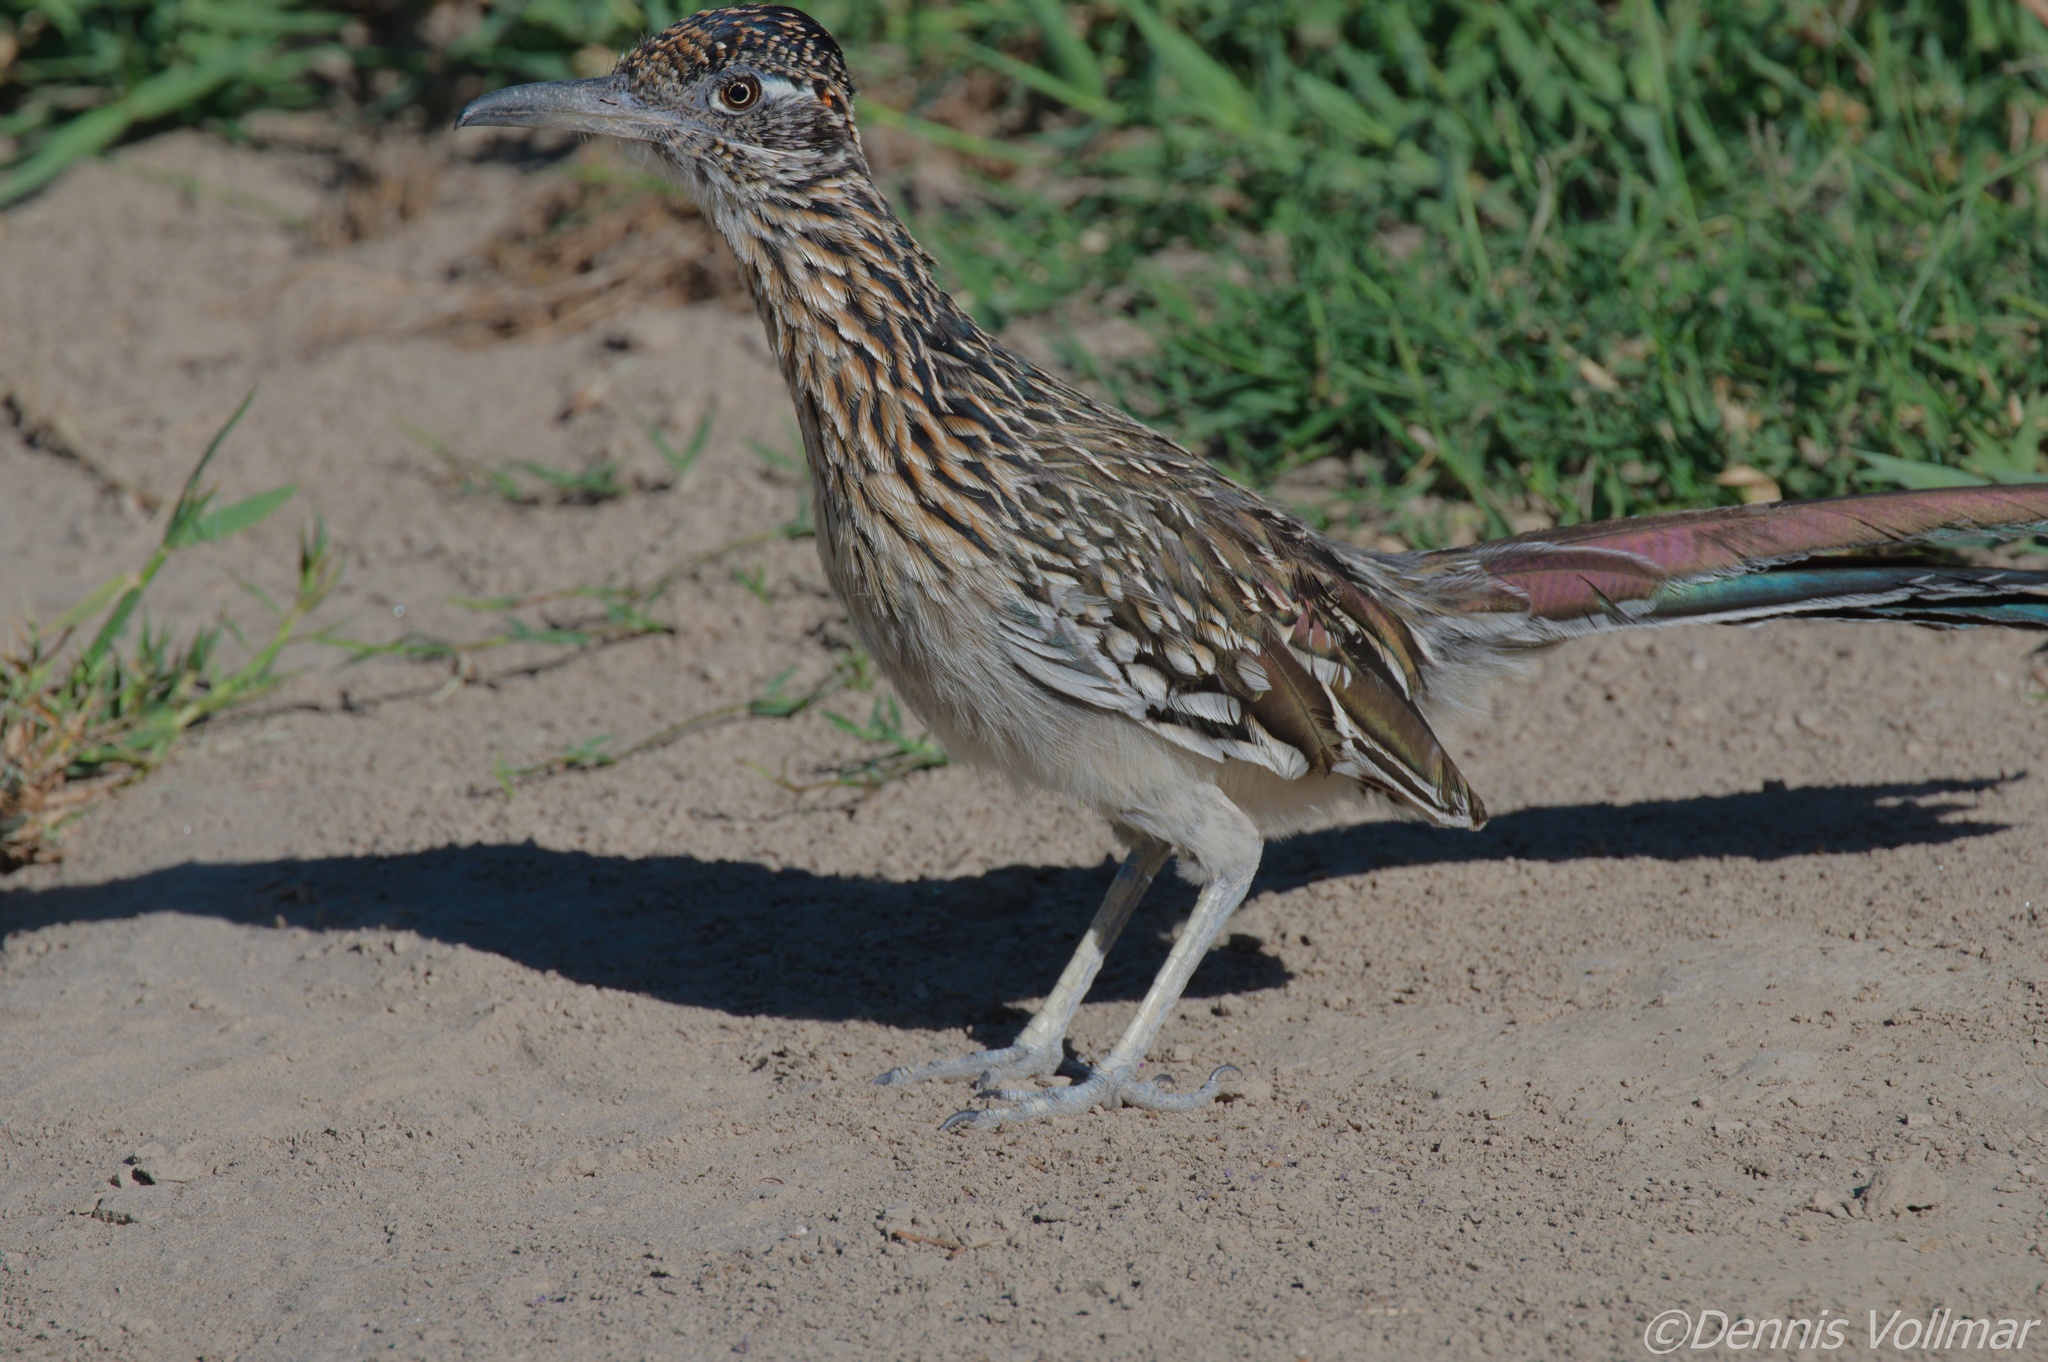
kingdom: Animalia
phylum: Chordata
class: Aves
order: Cuculiformes
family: Cuculidae
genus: Geococcyx
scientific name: Geococcyx californianus
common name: Greater roadrunner
